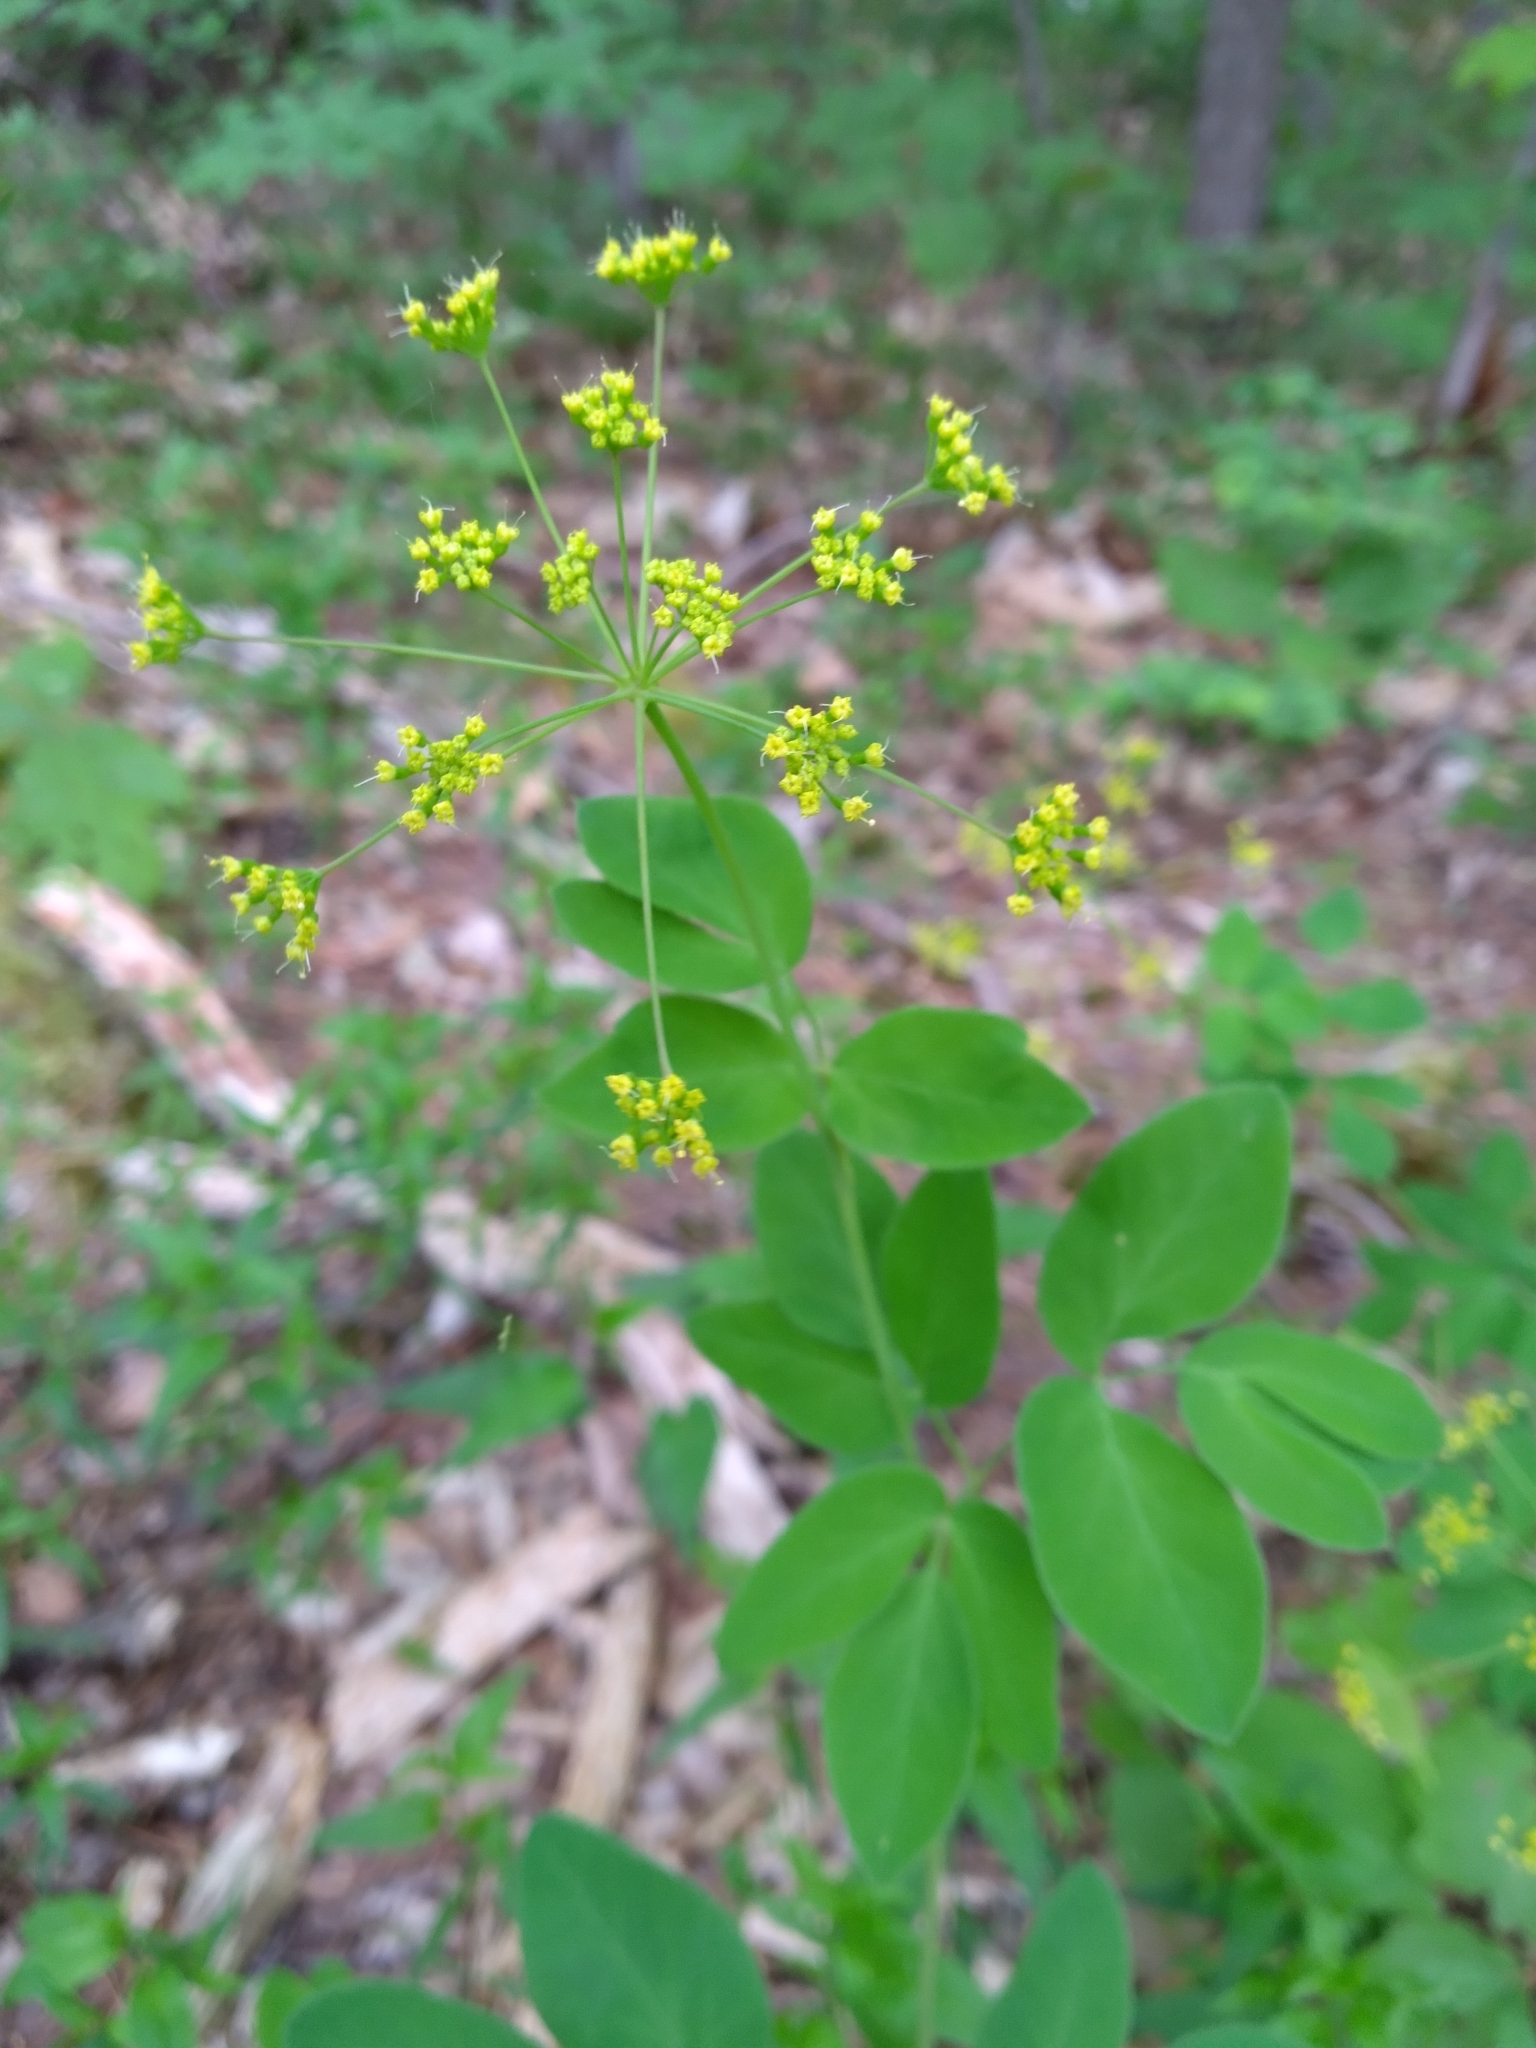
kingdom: Plantae
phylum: Tracheophyta
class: Magnoliopsida
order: Apiales
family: Apiaceae
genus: Taenidia
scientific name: Taenidia integerrima
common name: Golden alexander
